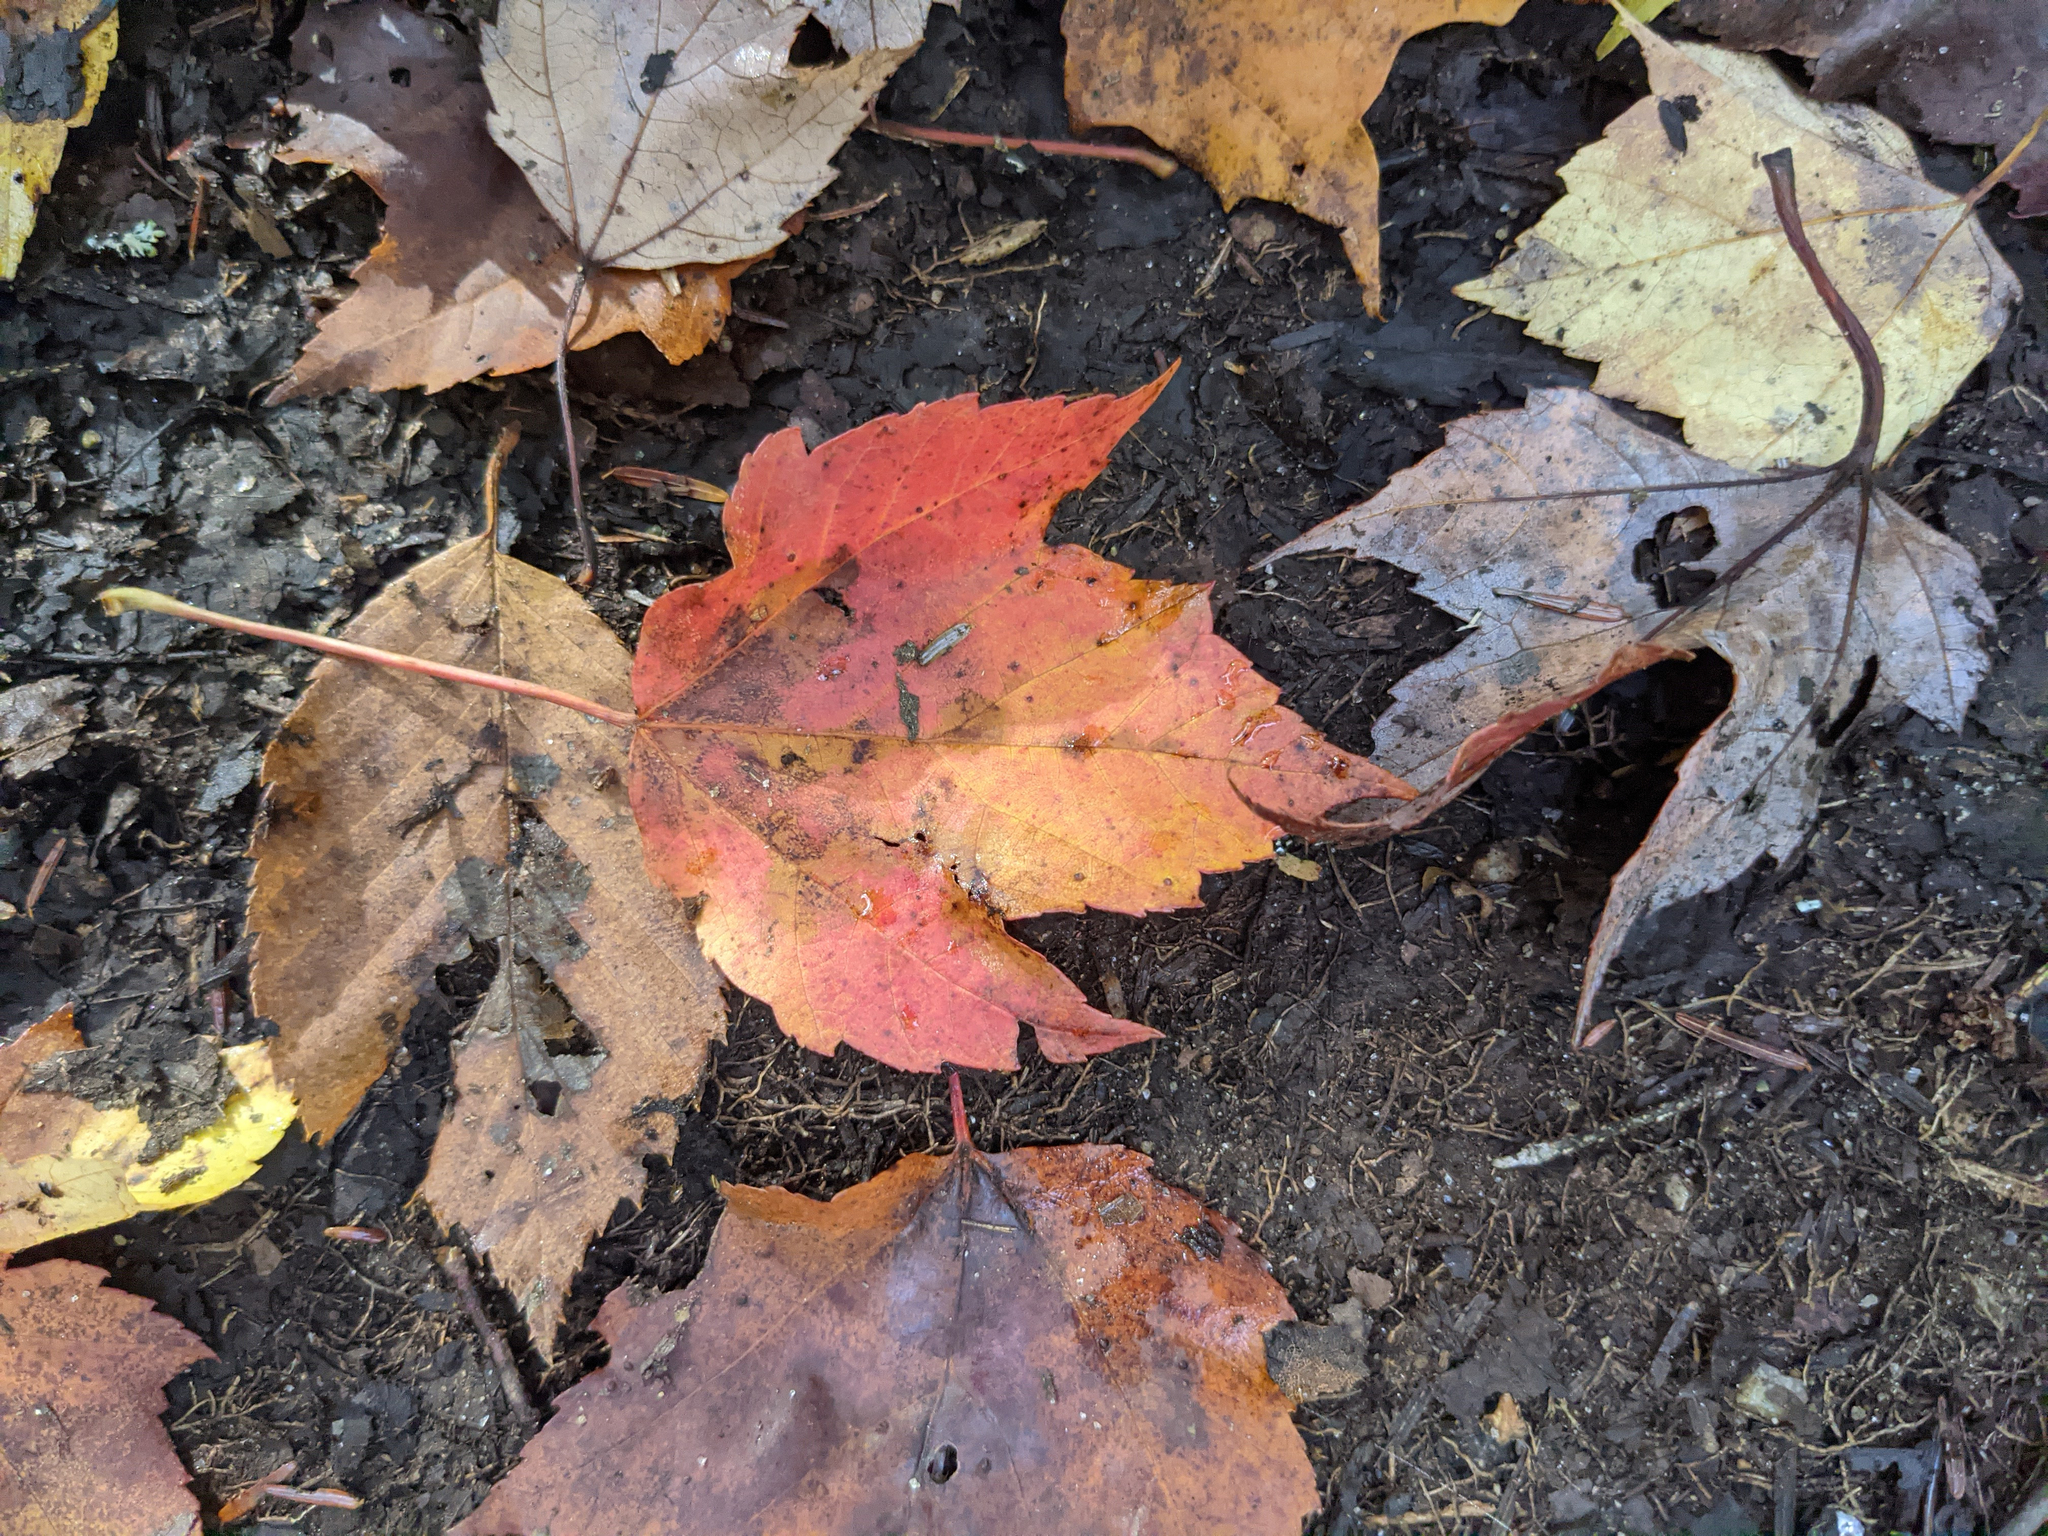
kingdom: Plantae
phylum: Tracheophyta
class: Magnoliopsida
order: Sapindales
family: Sapindaceae
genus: Acer
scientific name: Acer rubrum
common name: Red maple
